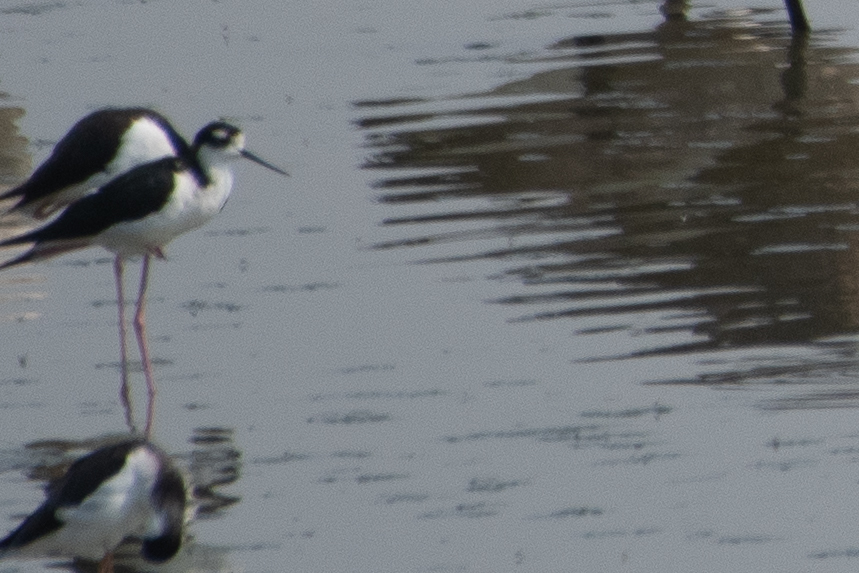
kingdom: Animalia
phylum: Chordata
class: Aves
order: Charadriiformes
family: Recurvirostridae
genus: Himantopus
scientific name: Himantopus mexicanus
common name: Black-necked stilt
